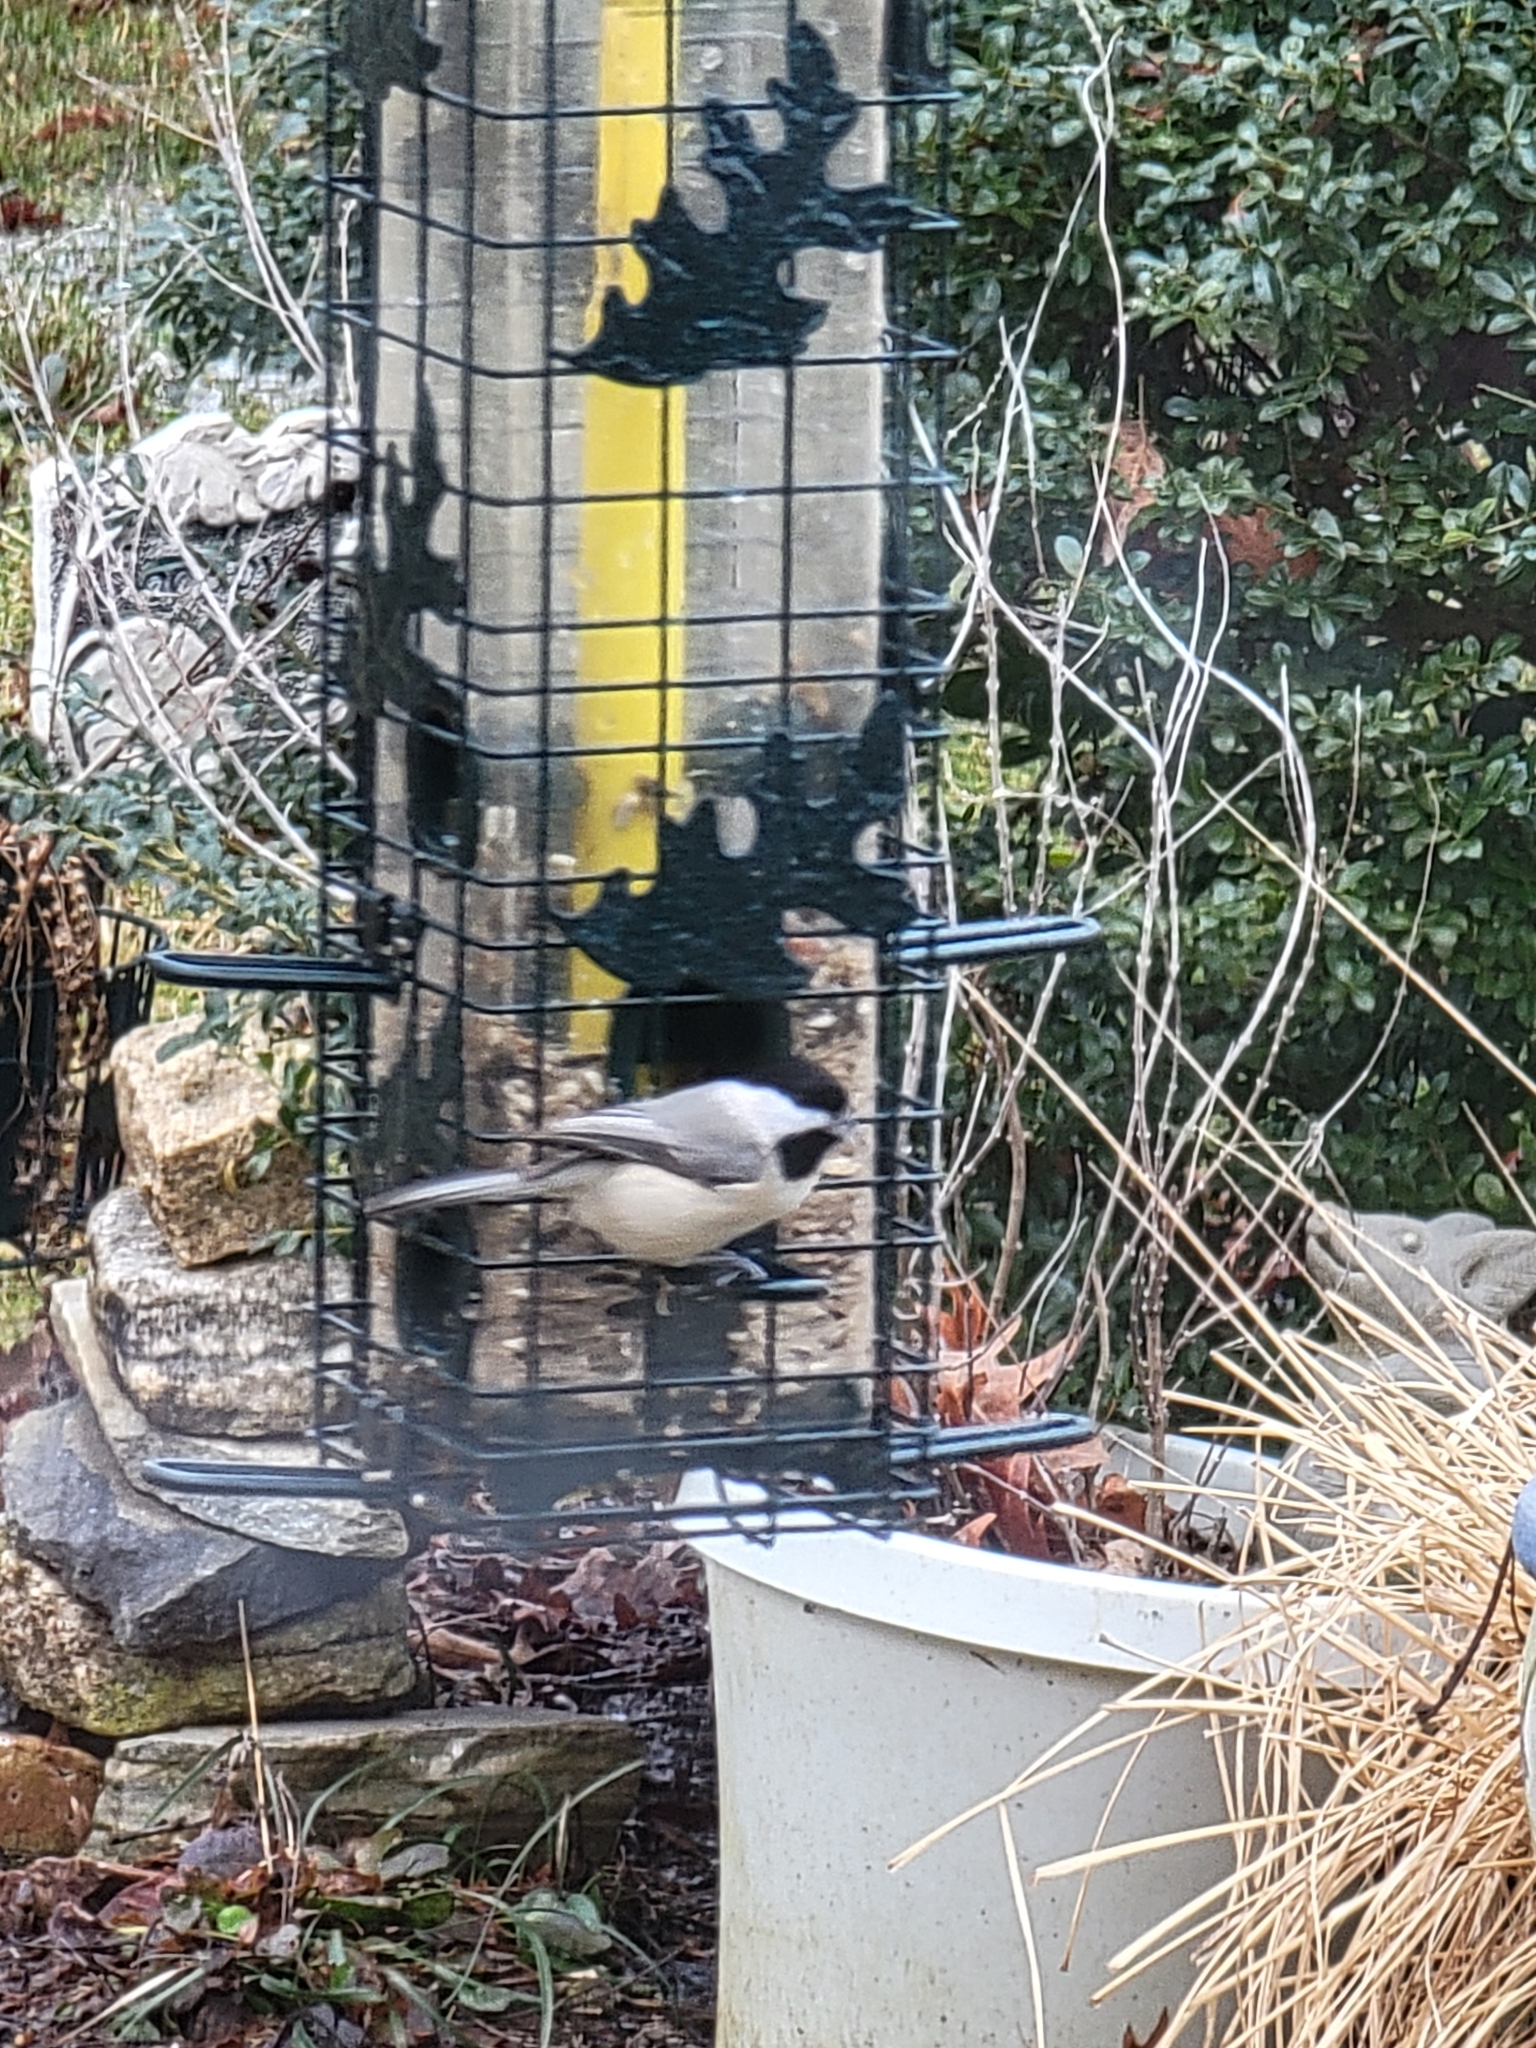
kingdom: Animalia
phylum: Chordata
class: Aves
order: Passeriformes
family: Paridae
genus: Poecile
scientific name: Poecile carolinensis
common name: Carolina chickadee
